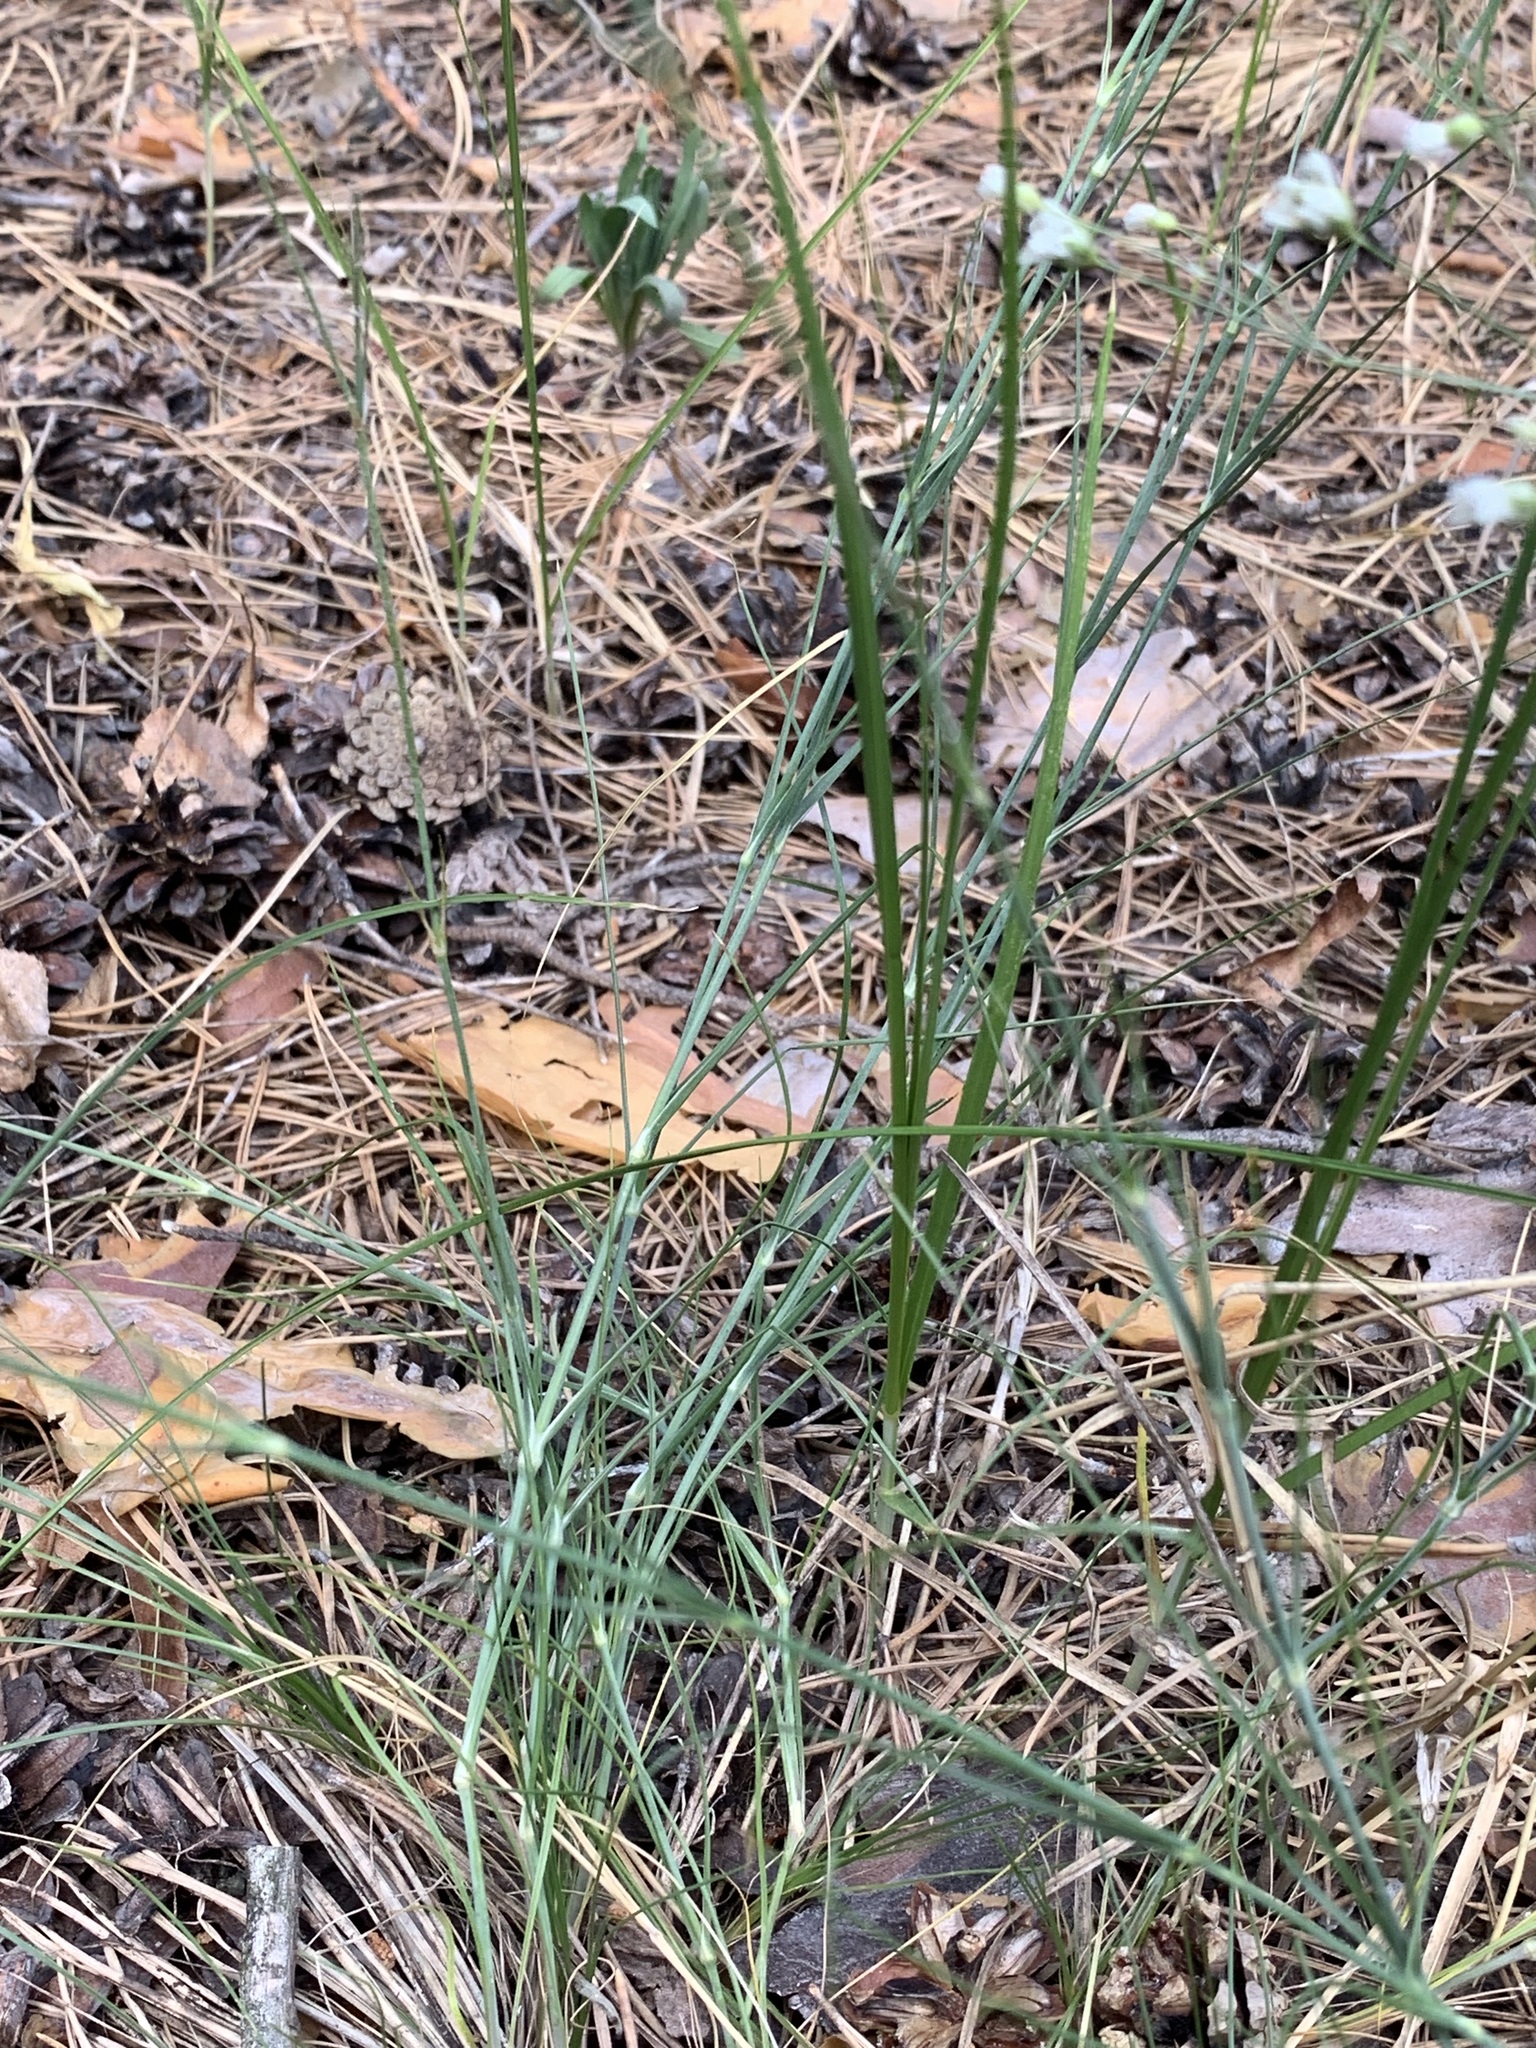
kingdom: Plantae
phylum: Tracheophyta
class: Magnoliopsida
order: Caryophyllales
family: Caryophyllaceae
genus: Eremogone
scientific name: Eremogone biebersteinii
